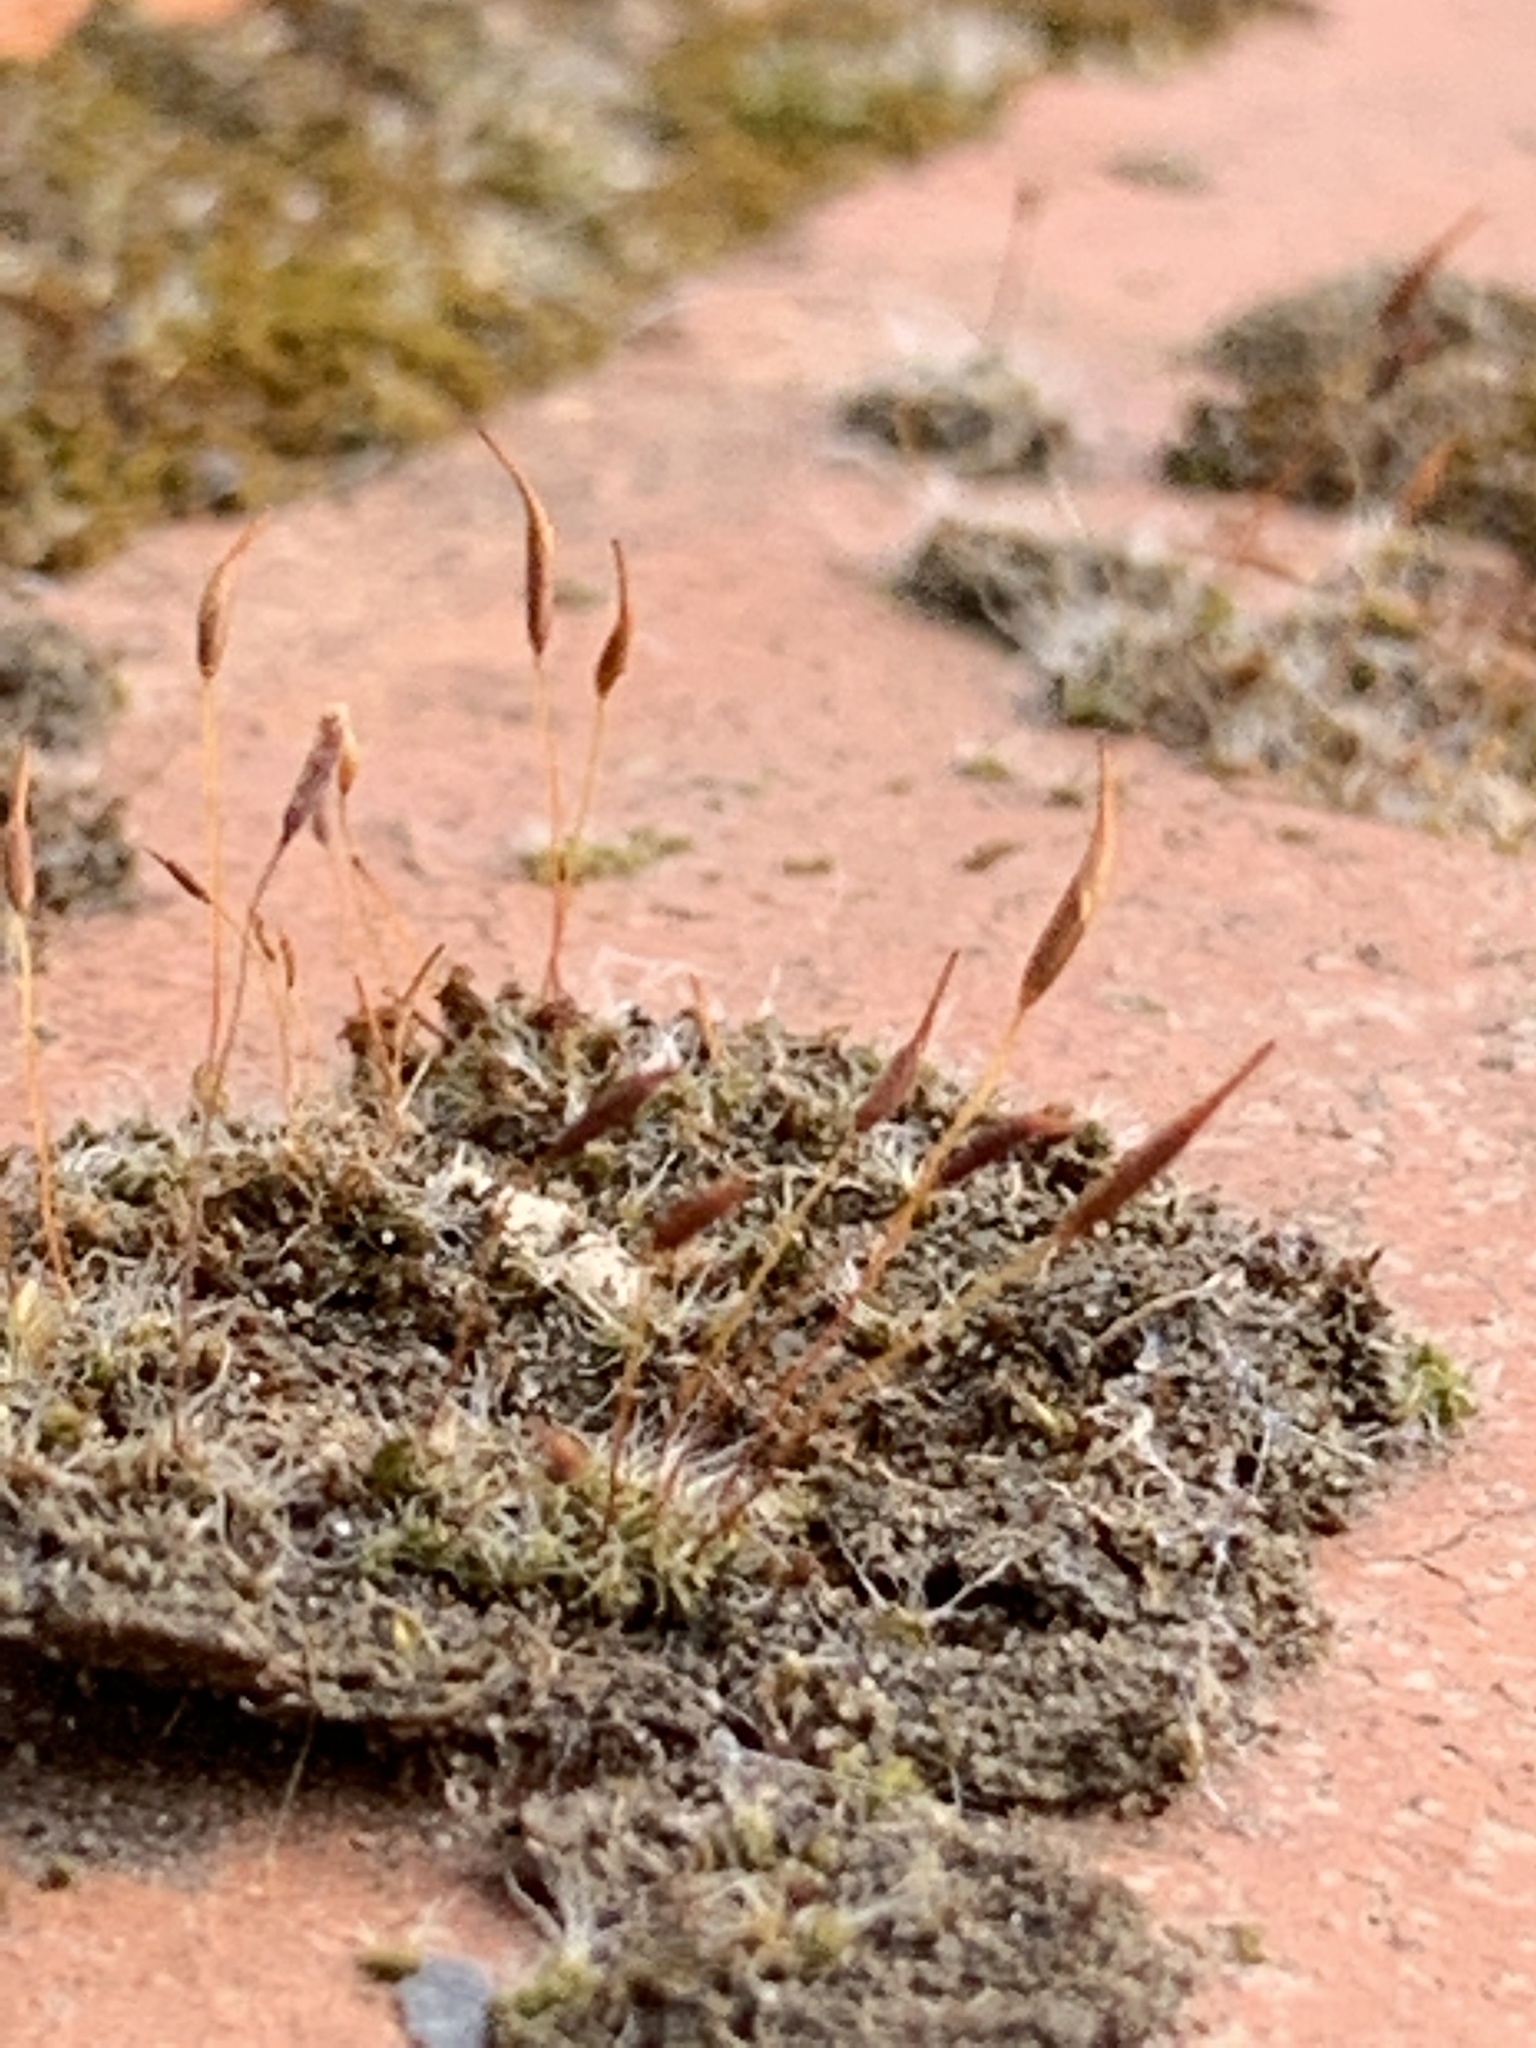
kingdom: Plantae
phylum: Bryophyta
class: Bryopsida
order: Pottiales
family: Pottiaceae
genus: Tortula
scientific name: Tortula muralis
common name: Wall screw-moss
